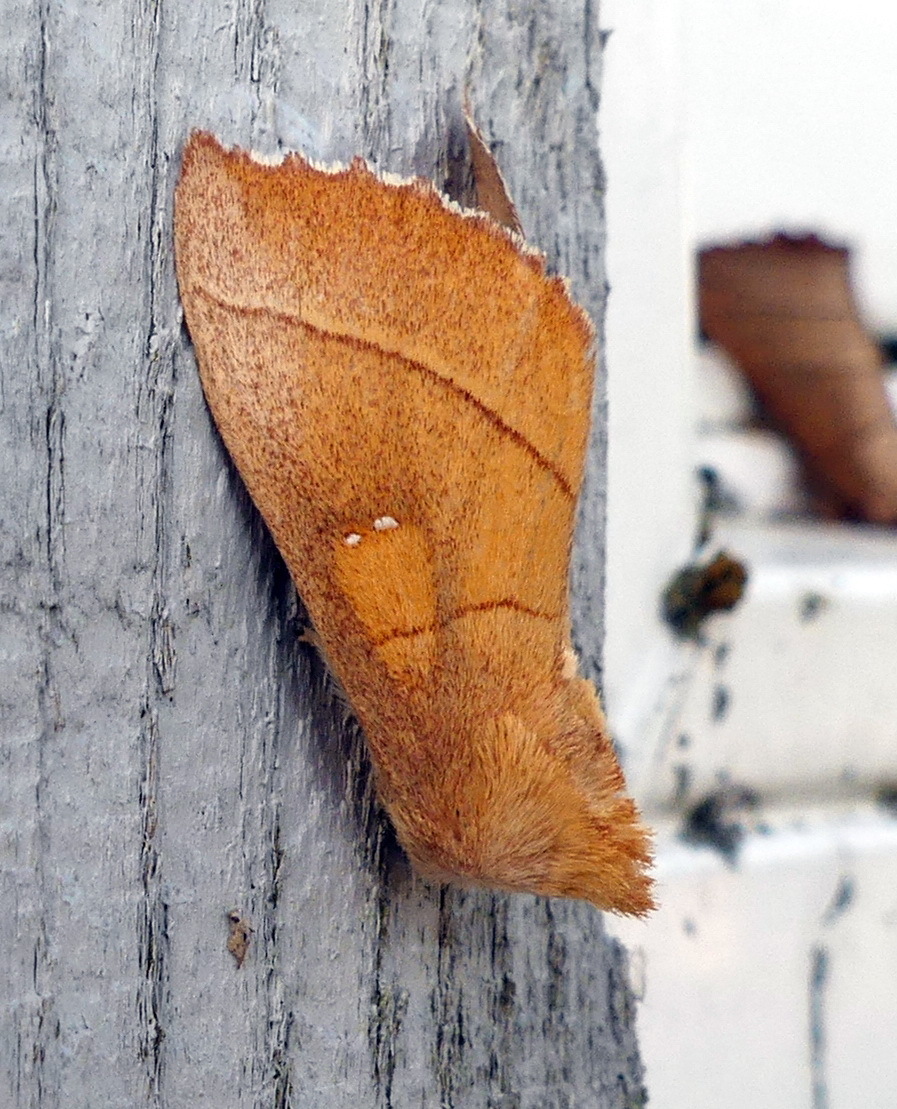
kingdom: Animalia
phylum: Arthropoda
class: Insecta
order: Lepidoptera
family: Notodontidae
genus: Nadata
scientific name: Nadata gibbosa
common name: White-dotted prominent
